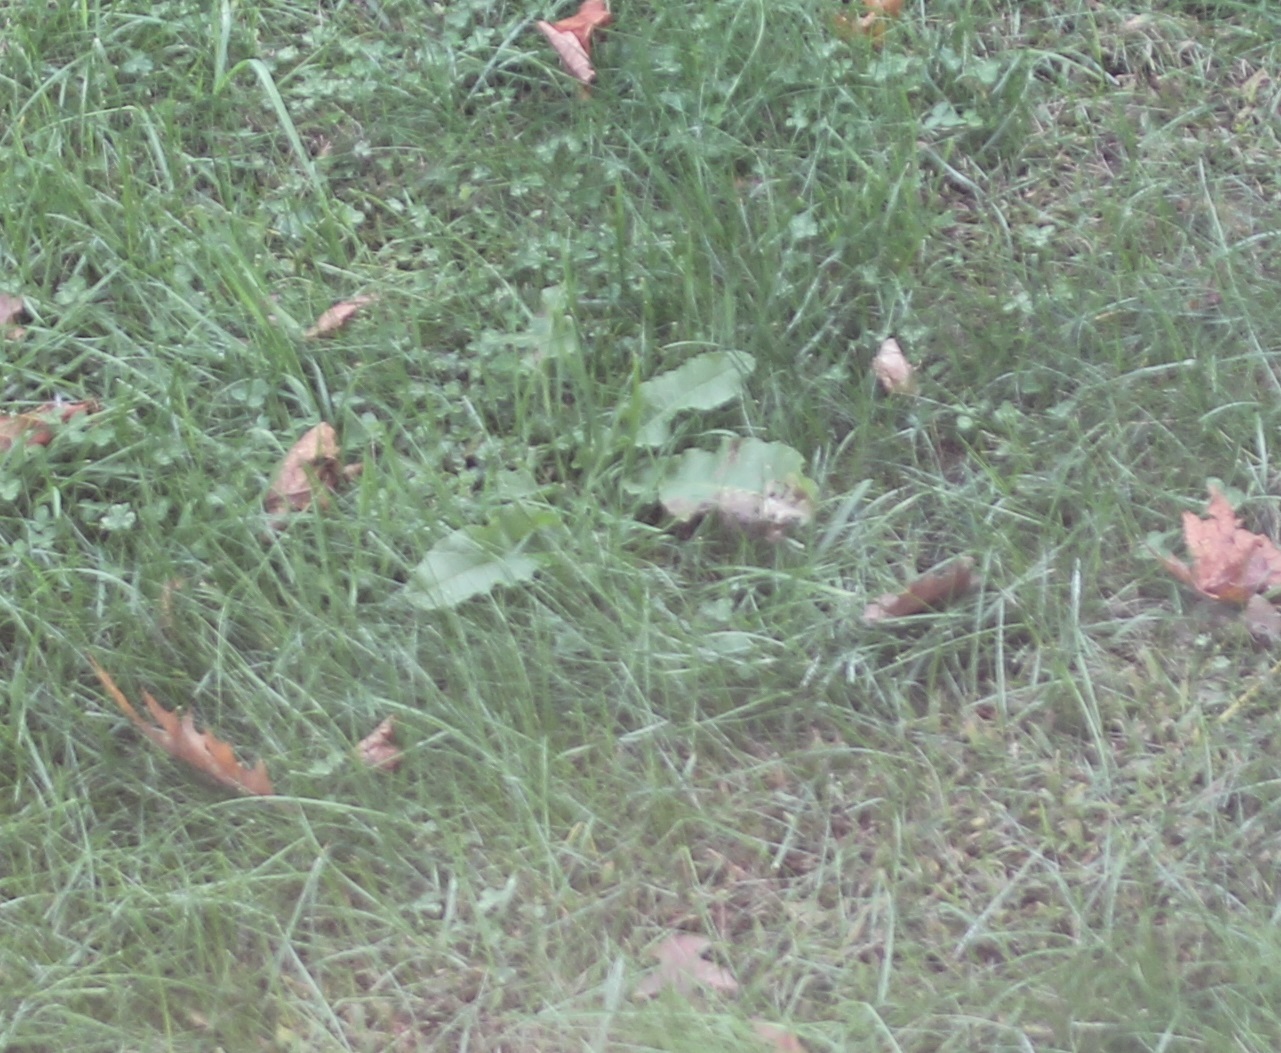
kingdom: Plantae
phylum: Tracheophyta
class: Magnoliopsida
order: Caryophyllales
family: Polygonaceae
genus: Rumex
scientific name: Rumex crispus
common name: Curled dock
